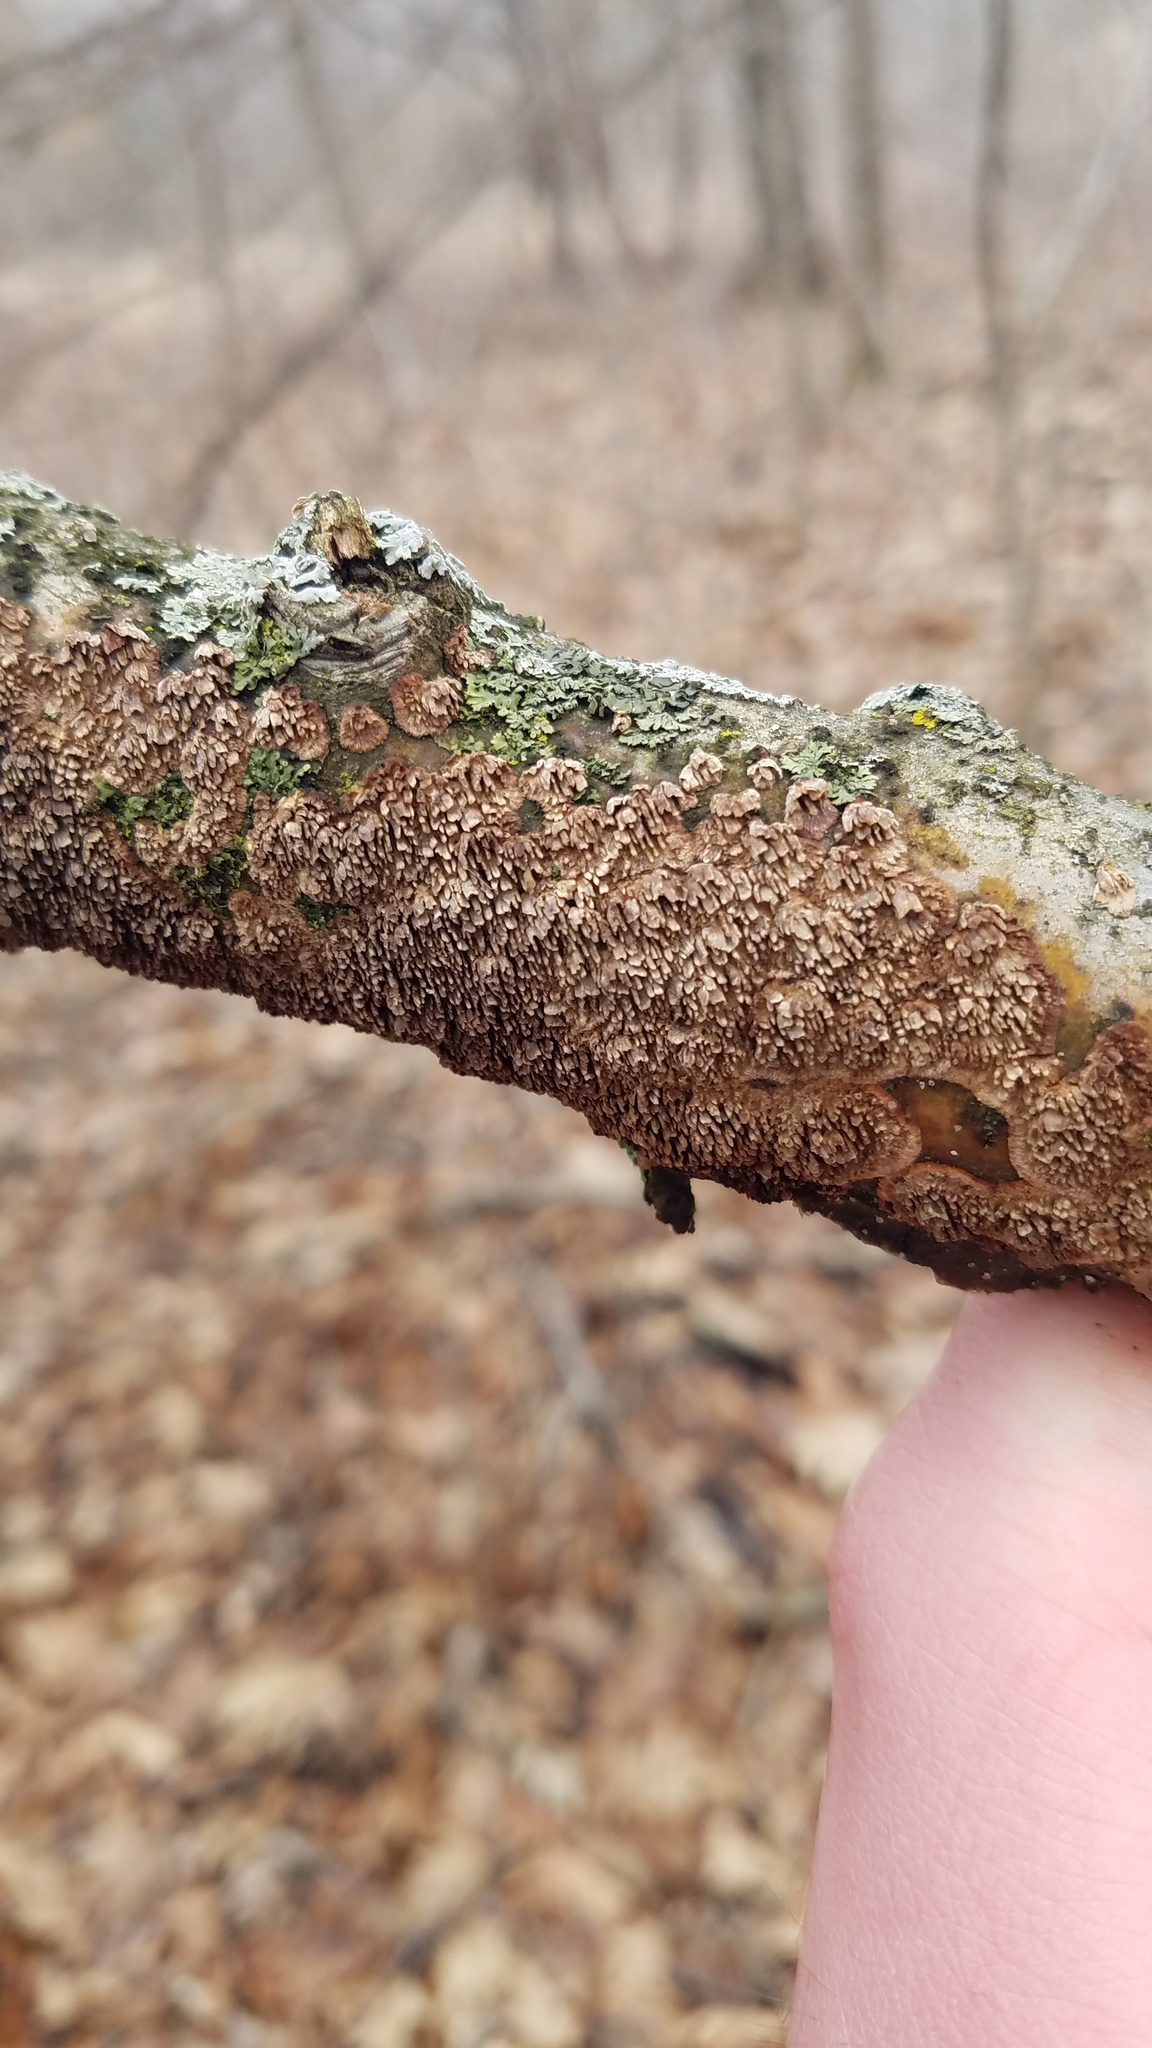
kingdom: Fungi
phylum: Basidiomycota
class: Agaricomycetes
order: Hymenochaetales
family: Hymenochaetaceae
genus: Hydnoporia
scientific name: Hydnoporia olivacea
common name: Brown-toothed crust fungus
